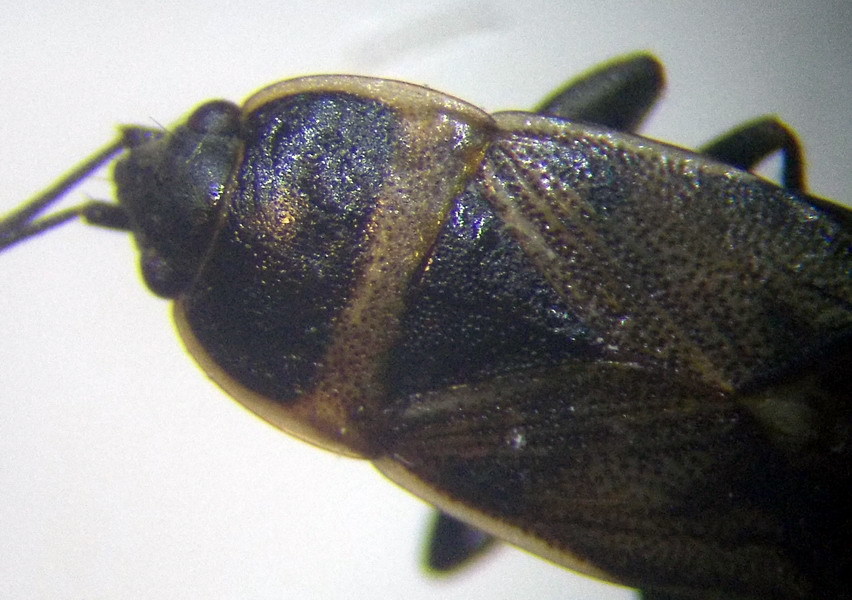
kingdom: Animalia
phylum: Arthropoda
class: Insecta
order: Hemiptera
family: Rhyparochromidae
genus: Bleteogonus
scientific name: Bleteogonus beckeri
